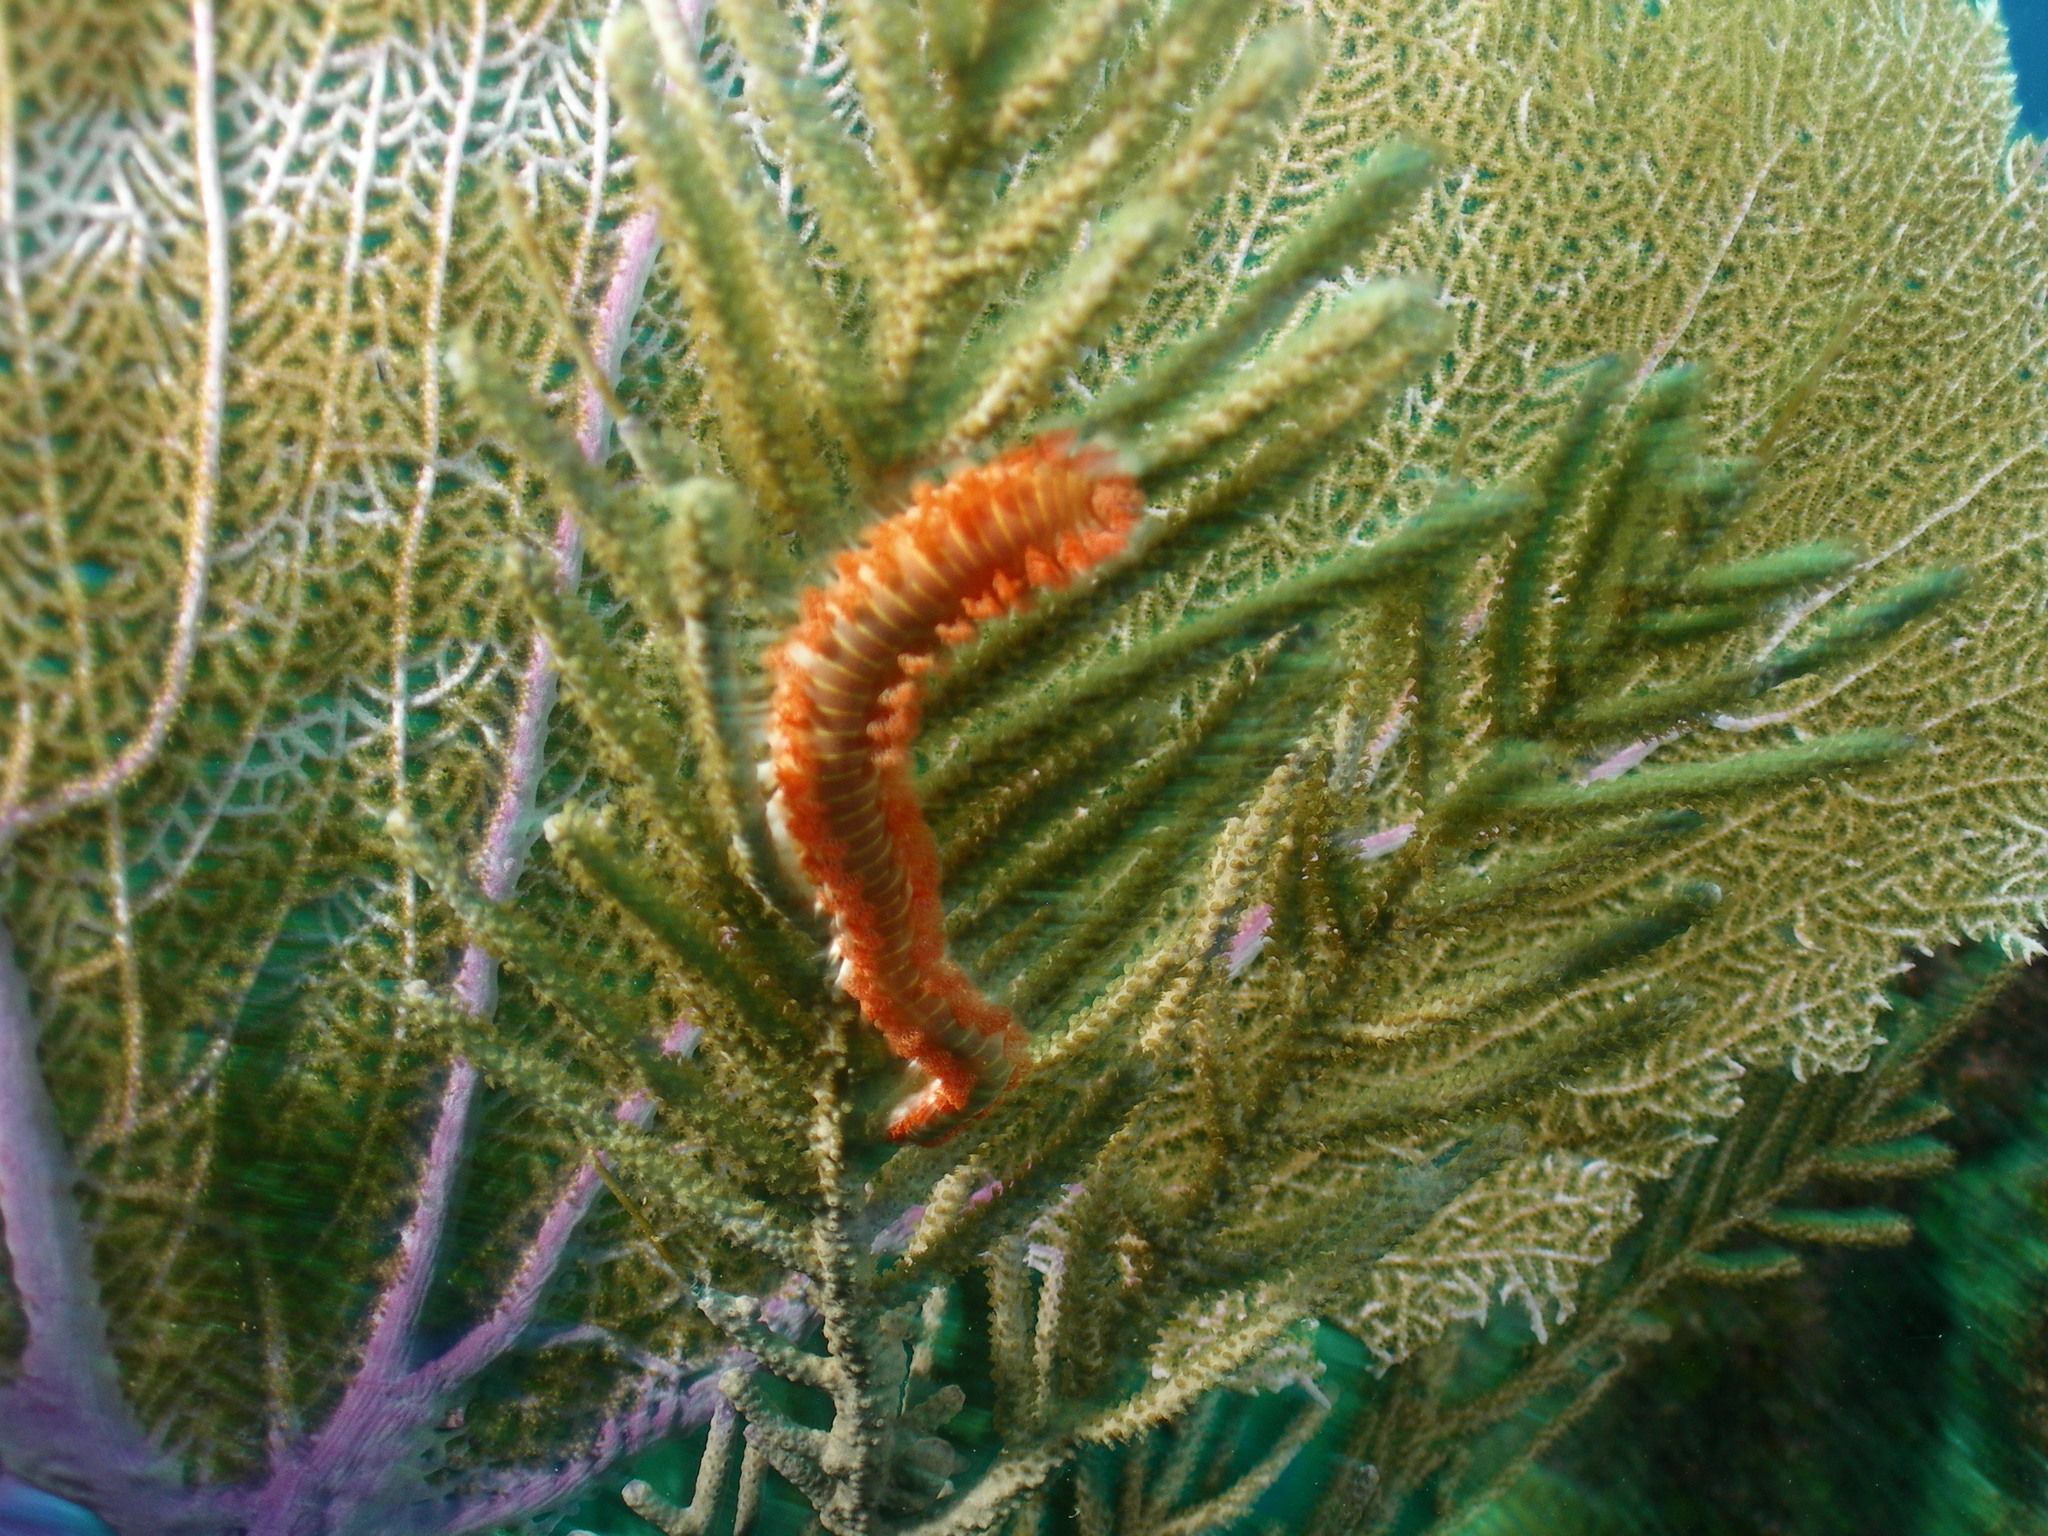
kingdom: Animalia
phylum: Annelida
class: Polychaeta
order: Amphinomida
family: Amphinomidae
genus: Hermodice
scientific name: Hermodice carunculata
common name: Bearded fireworm
